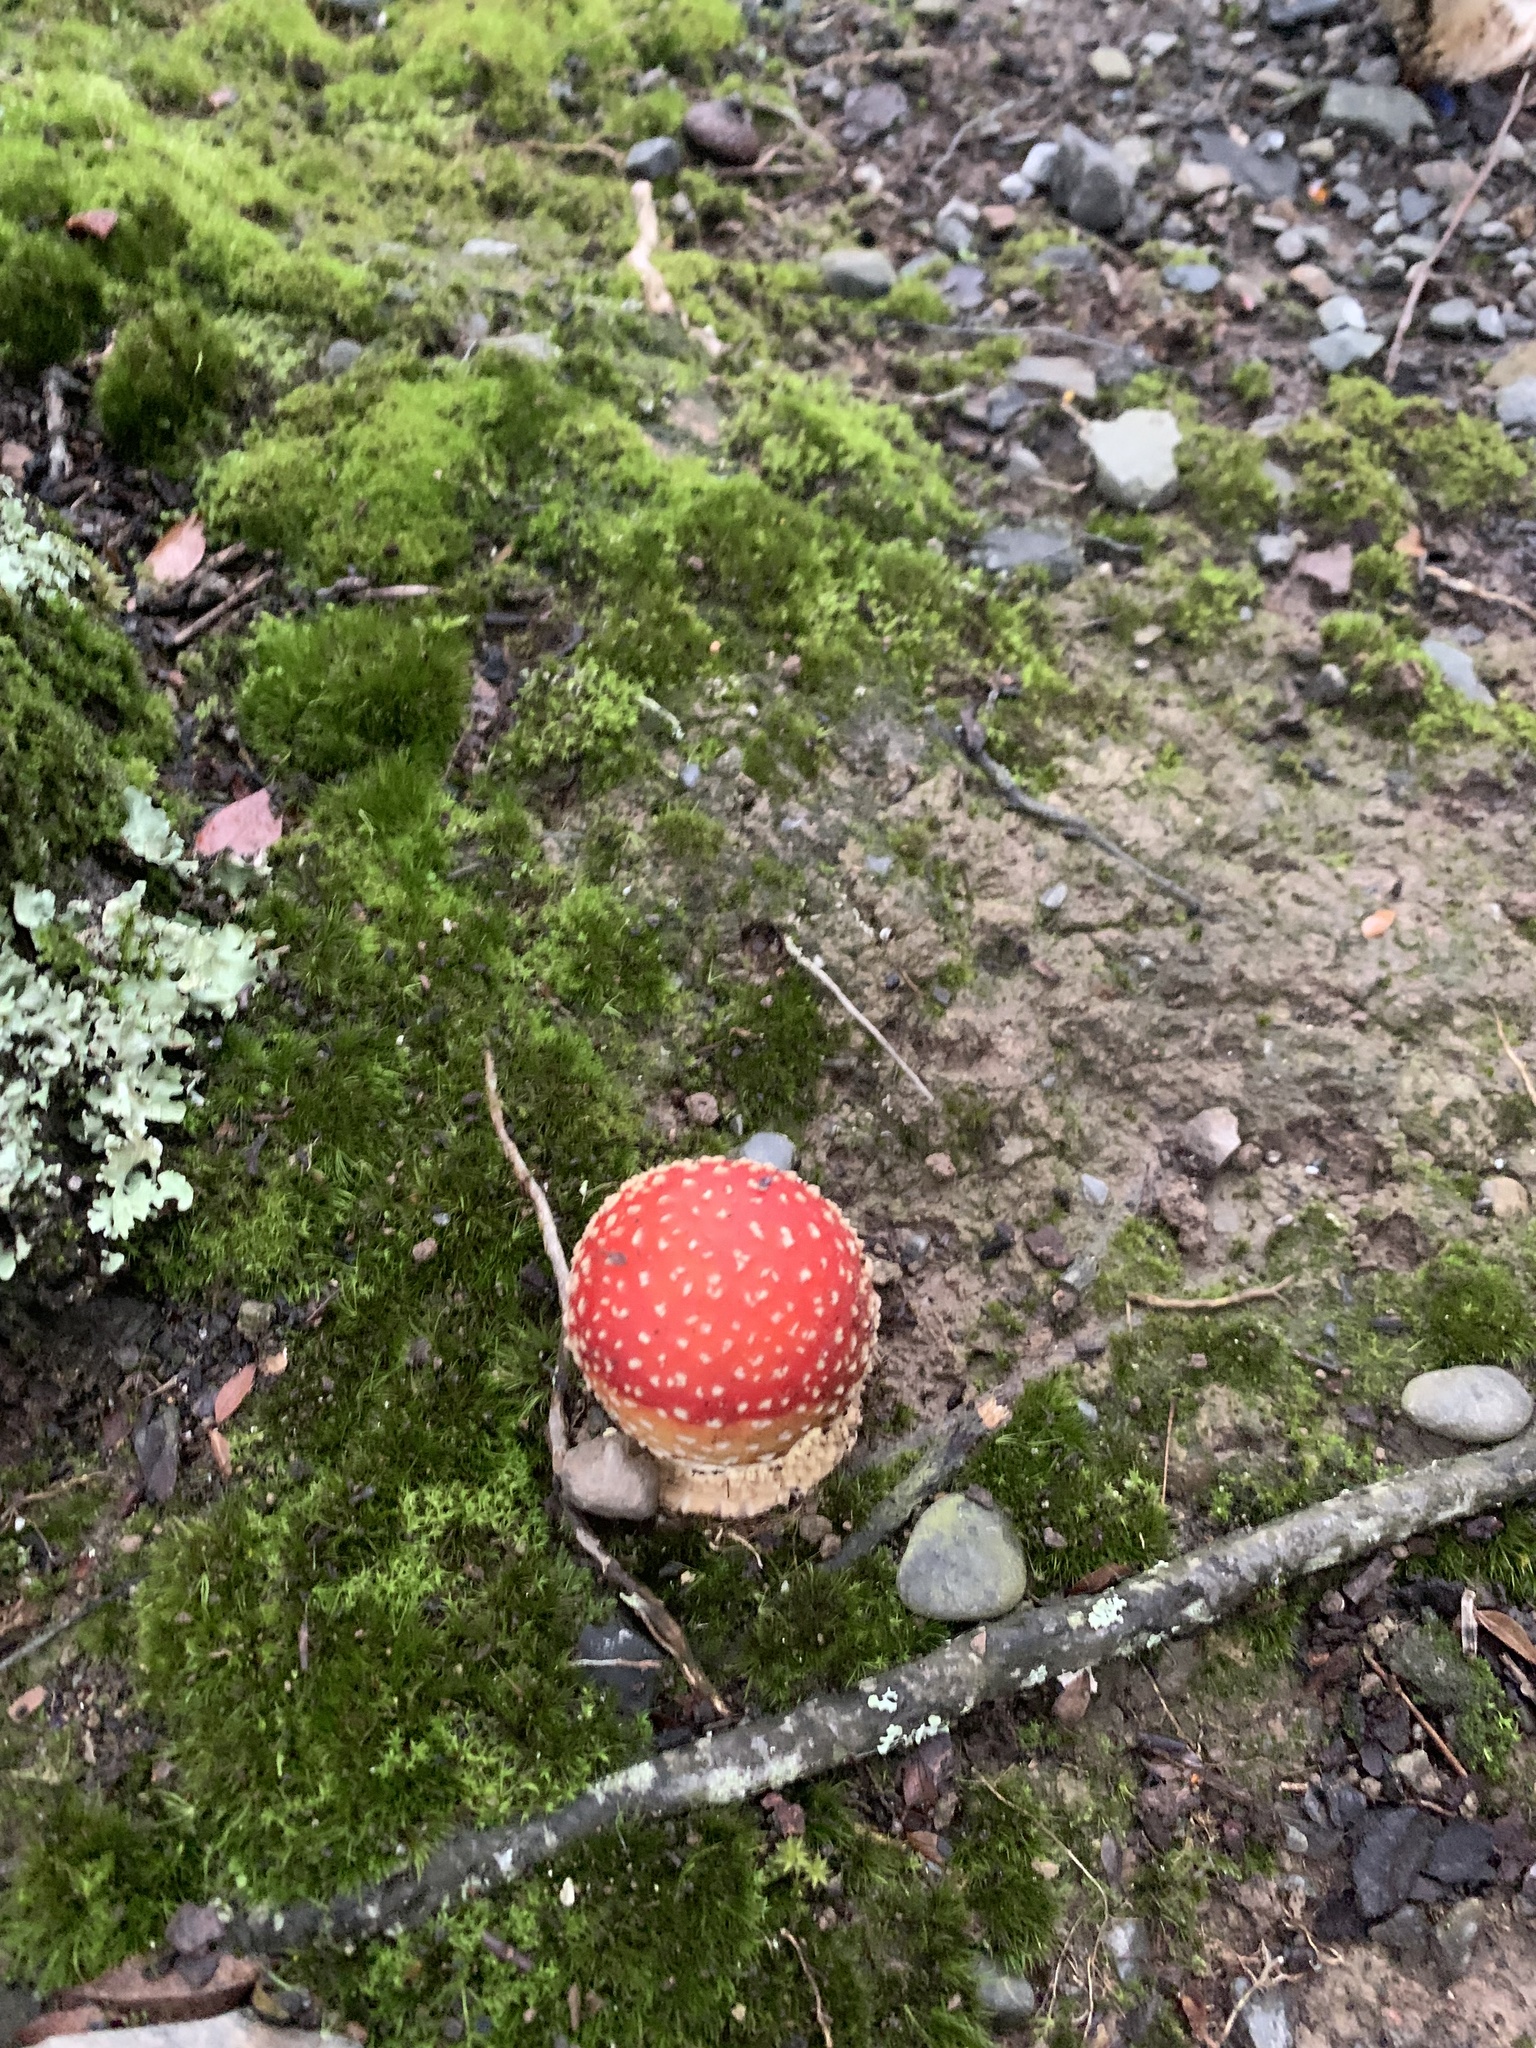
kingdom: Fungi
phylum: Basidiomycota
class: Agaricomycetes
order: Agaricales
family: Amanitaceae
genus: Amanita
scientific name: Amanita muscaria
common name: Fly agaric
